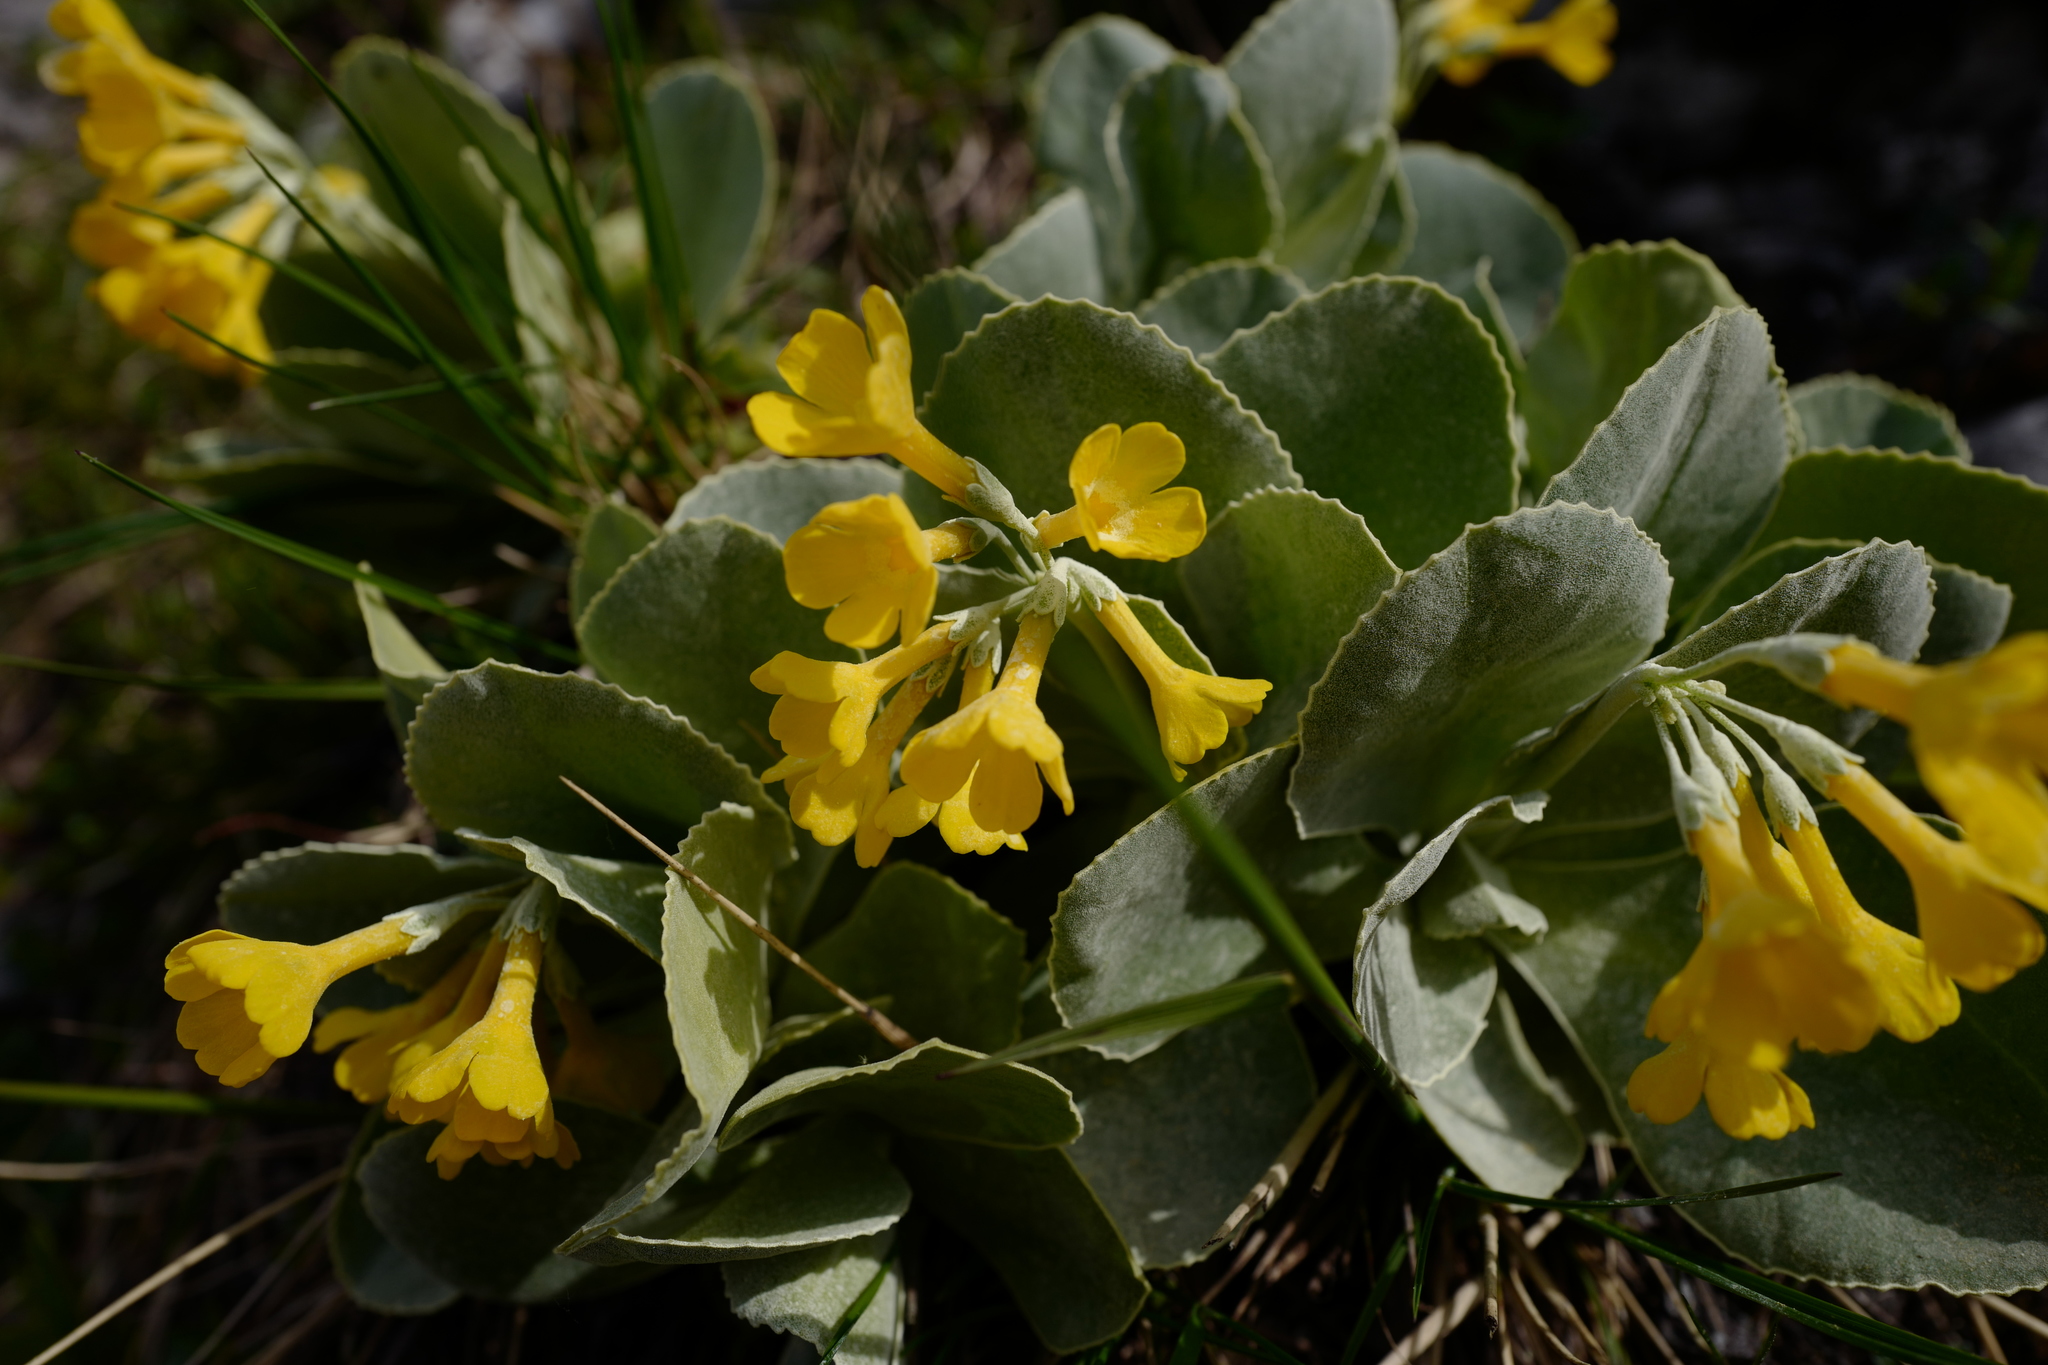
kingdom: Plantae
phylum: Tracheophyta
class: Magnoliopsida
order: Ericales
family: Primulaceae
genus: Primula
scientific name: Primula auricula
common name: Auricula
